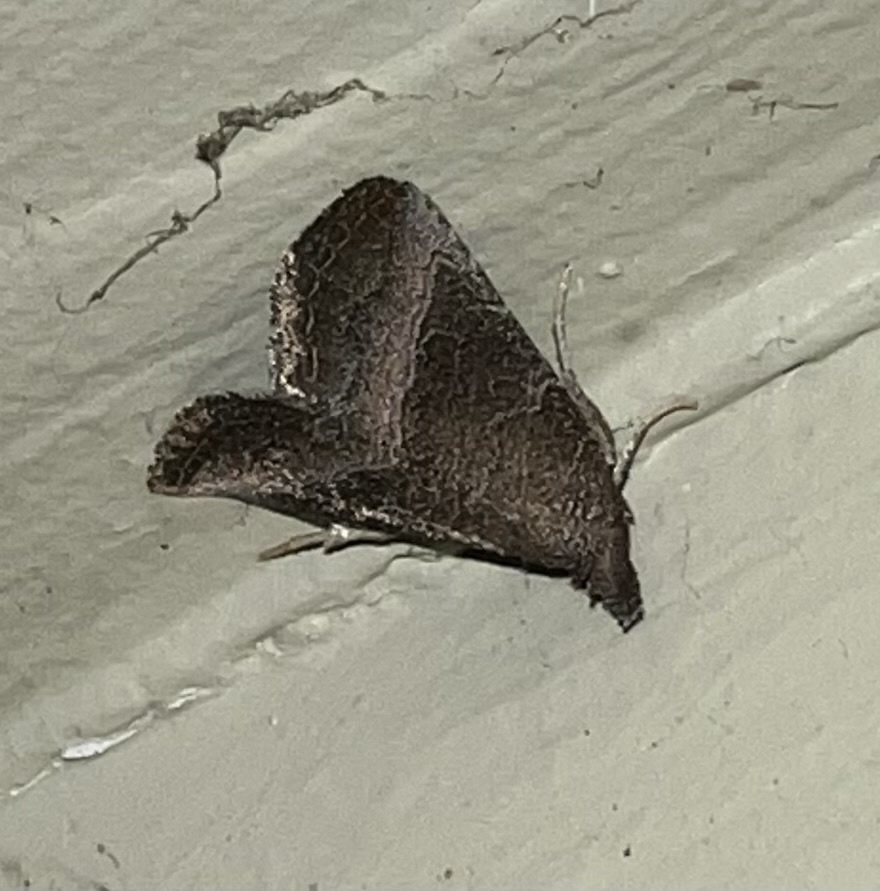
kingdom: Animalia
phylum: Arthropoda
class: Insecta
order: Lepidoptera
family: Noctuidae
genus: Ogdoconta
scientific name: Ogdoconta cinereola
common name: Common pinkband
